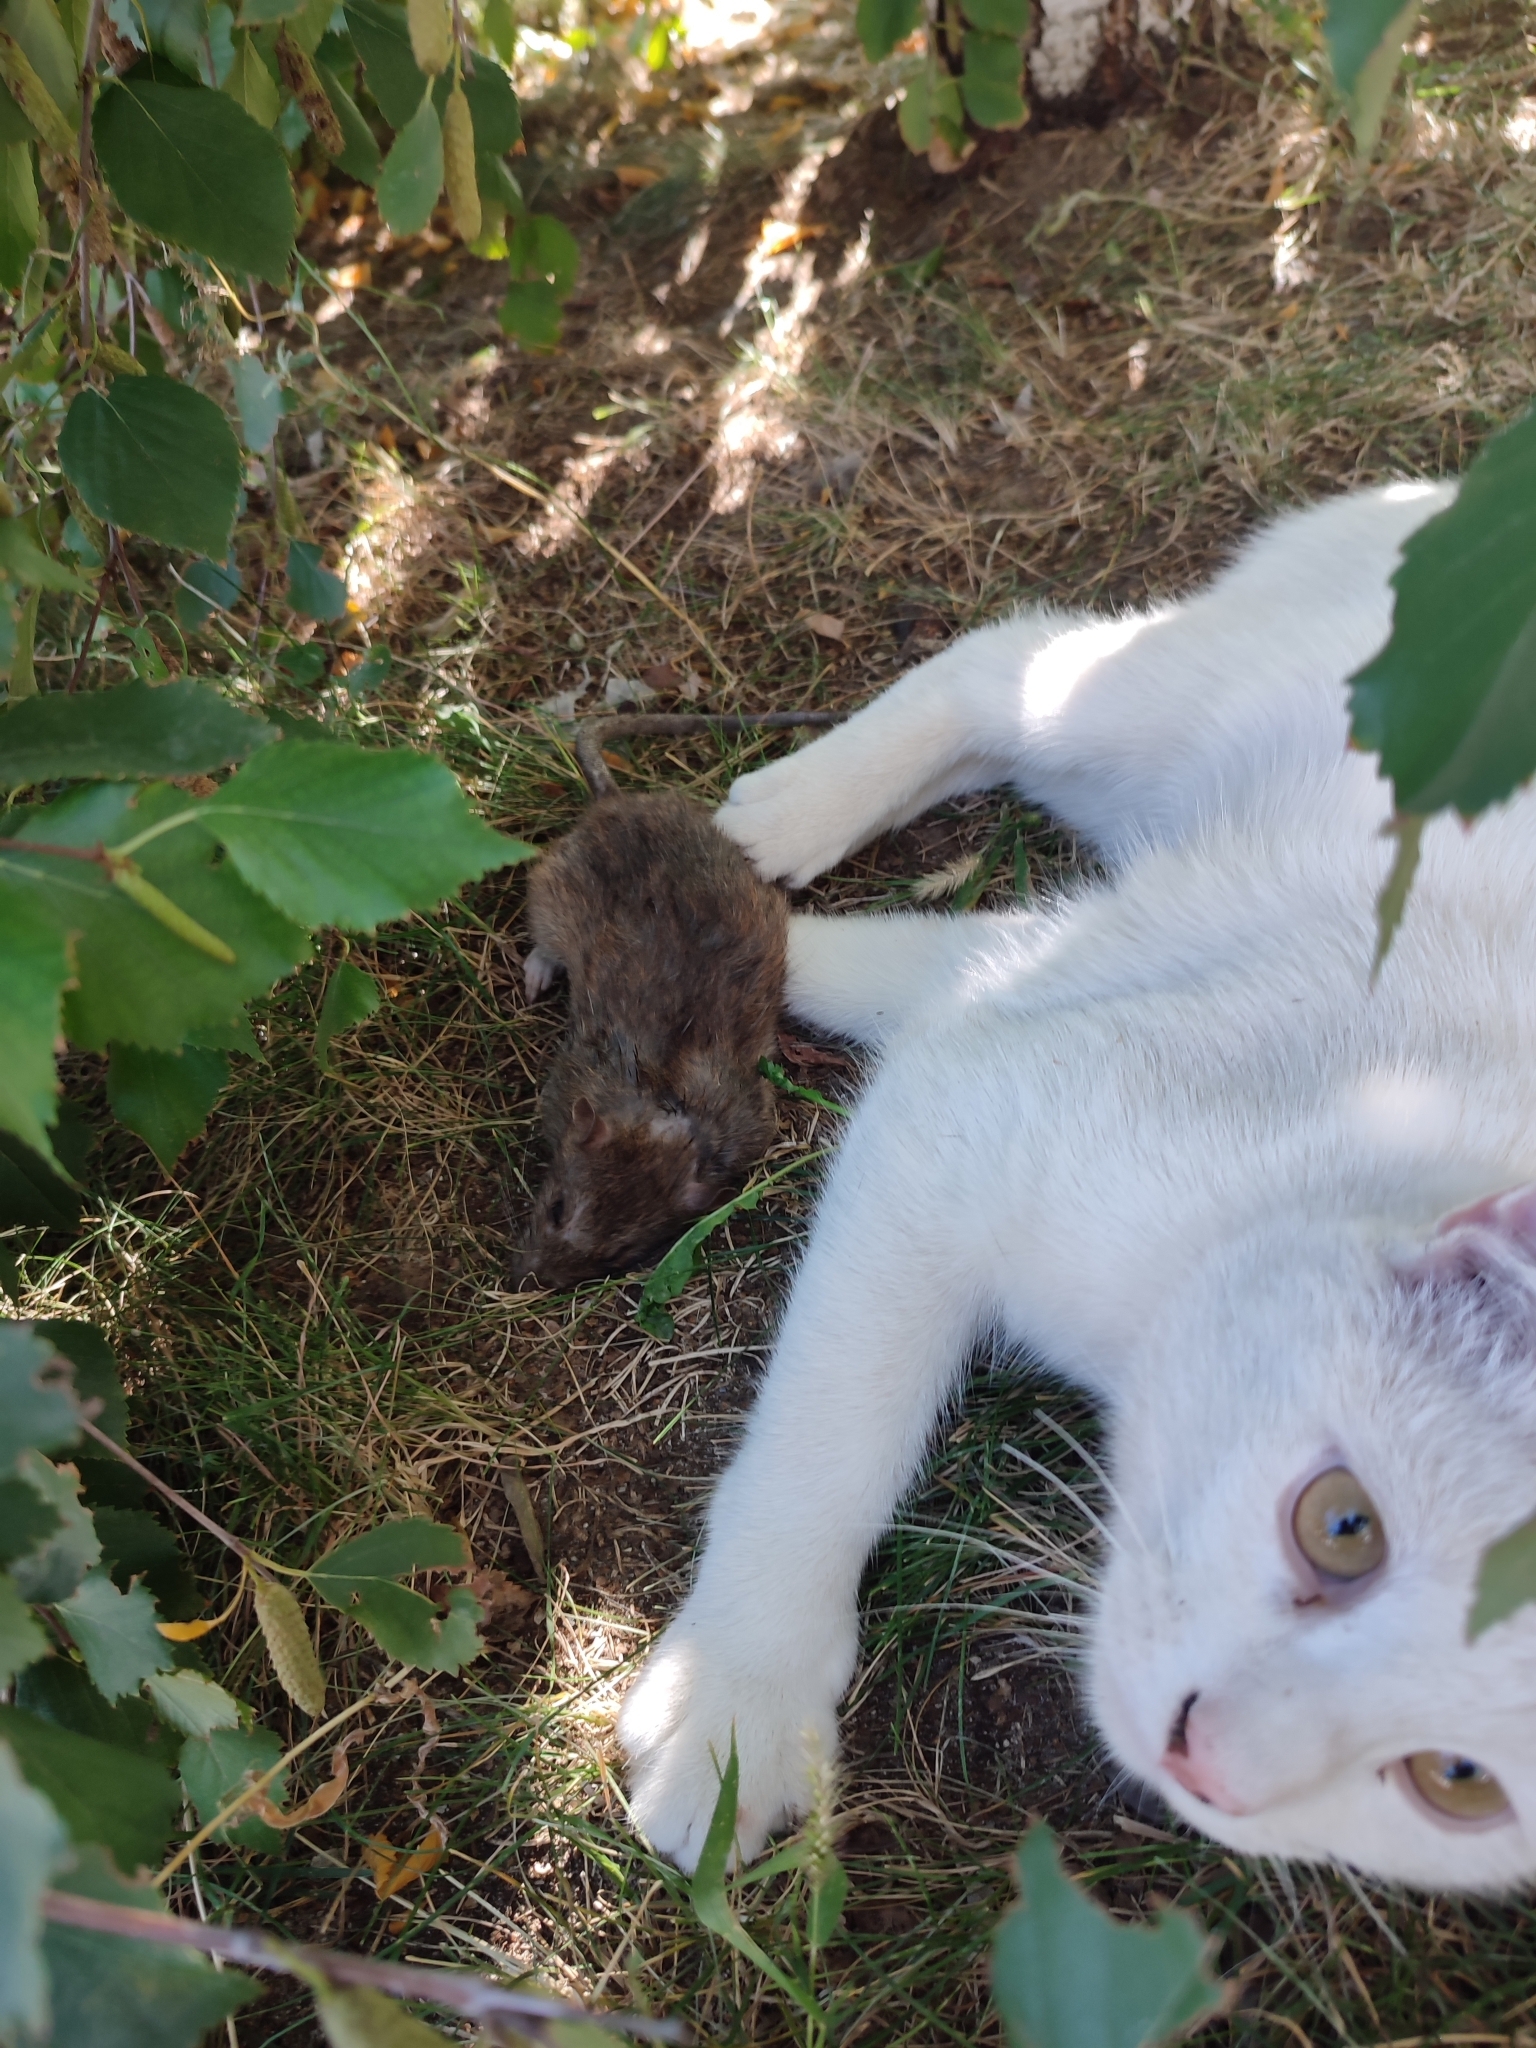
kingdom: Animalia
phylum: Chordata
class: Mammalia
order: Rodentia
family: Muridae
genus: Rattus
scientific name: Rattus norvegicus
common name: Brown rat
